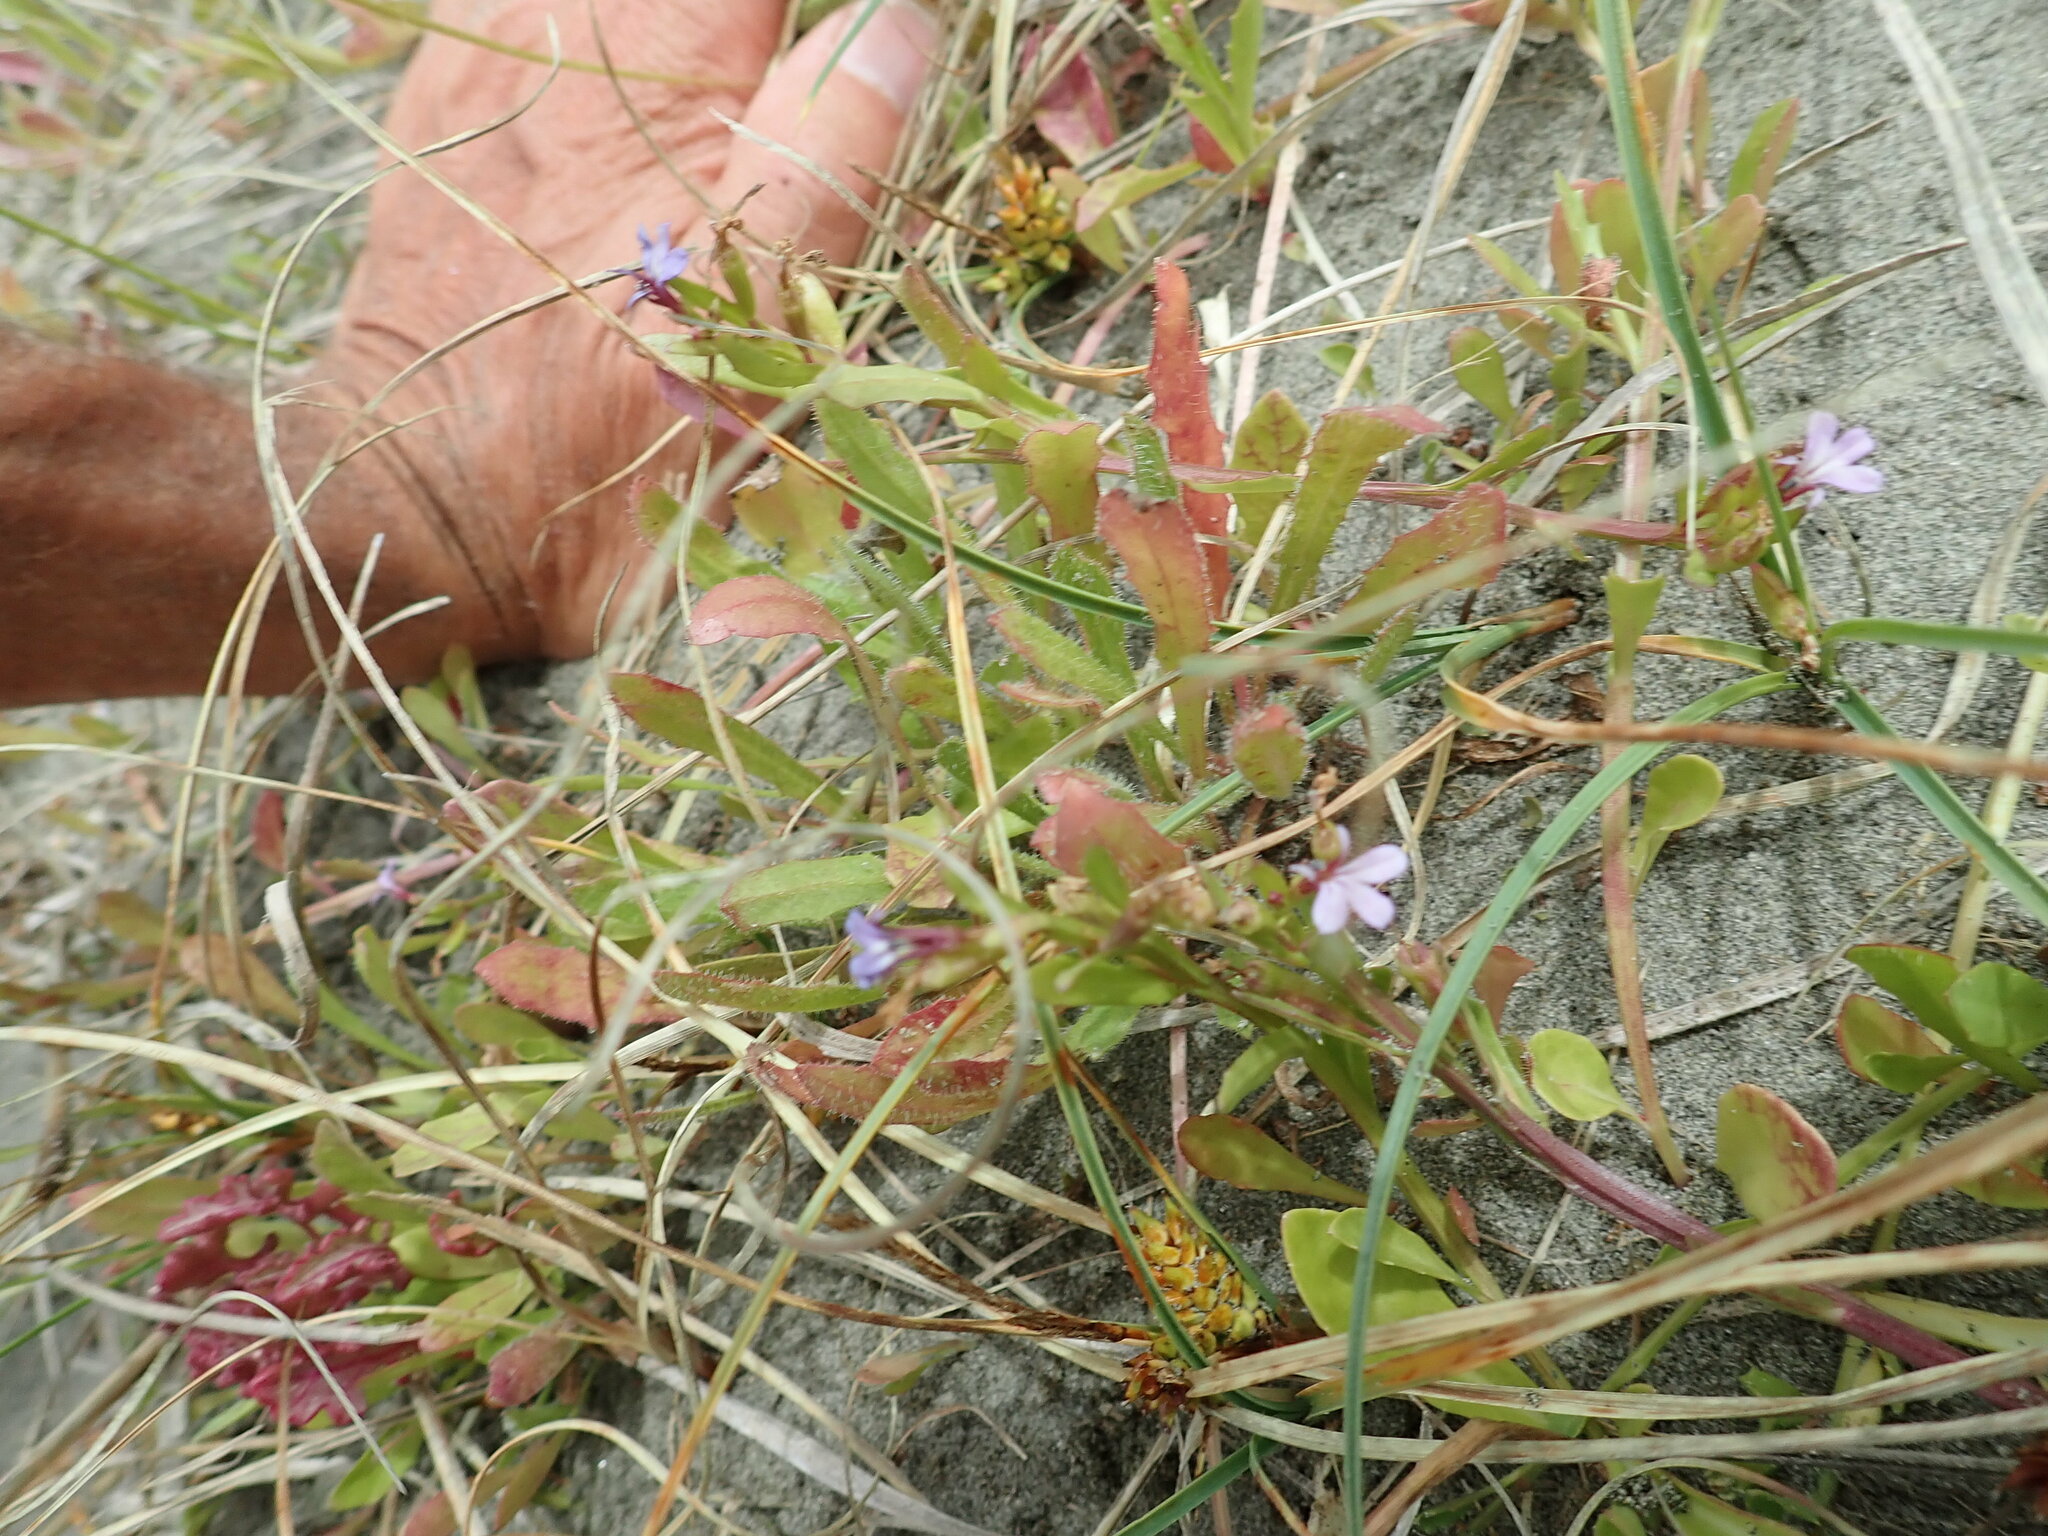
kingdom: Plantae
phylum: Tracheophyta
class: Magnoliopsida
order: Asterales
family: Campanulaceae
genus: Lobelia
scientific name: Lobelia anceps
